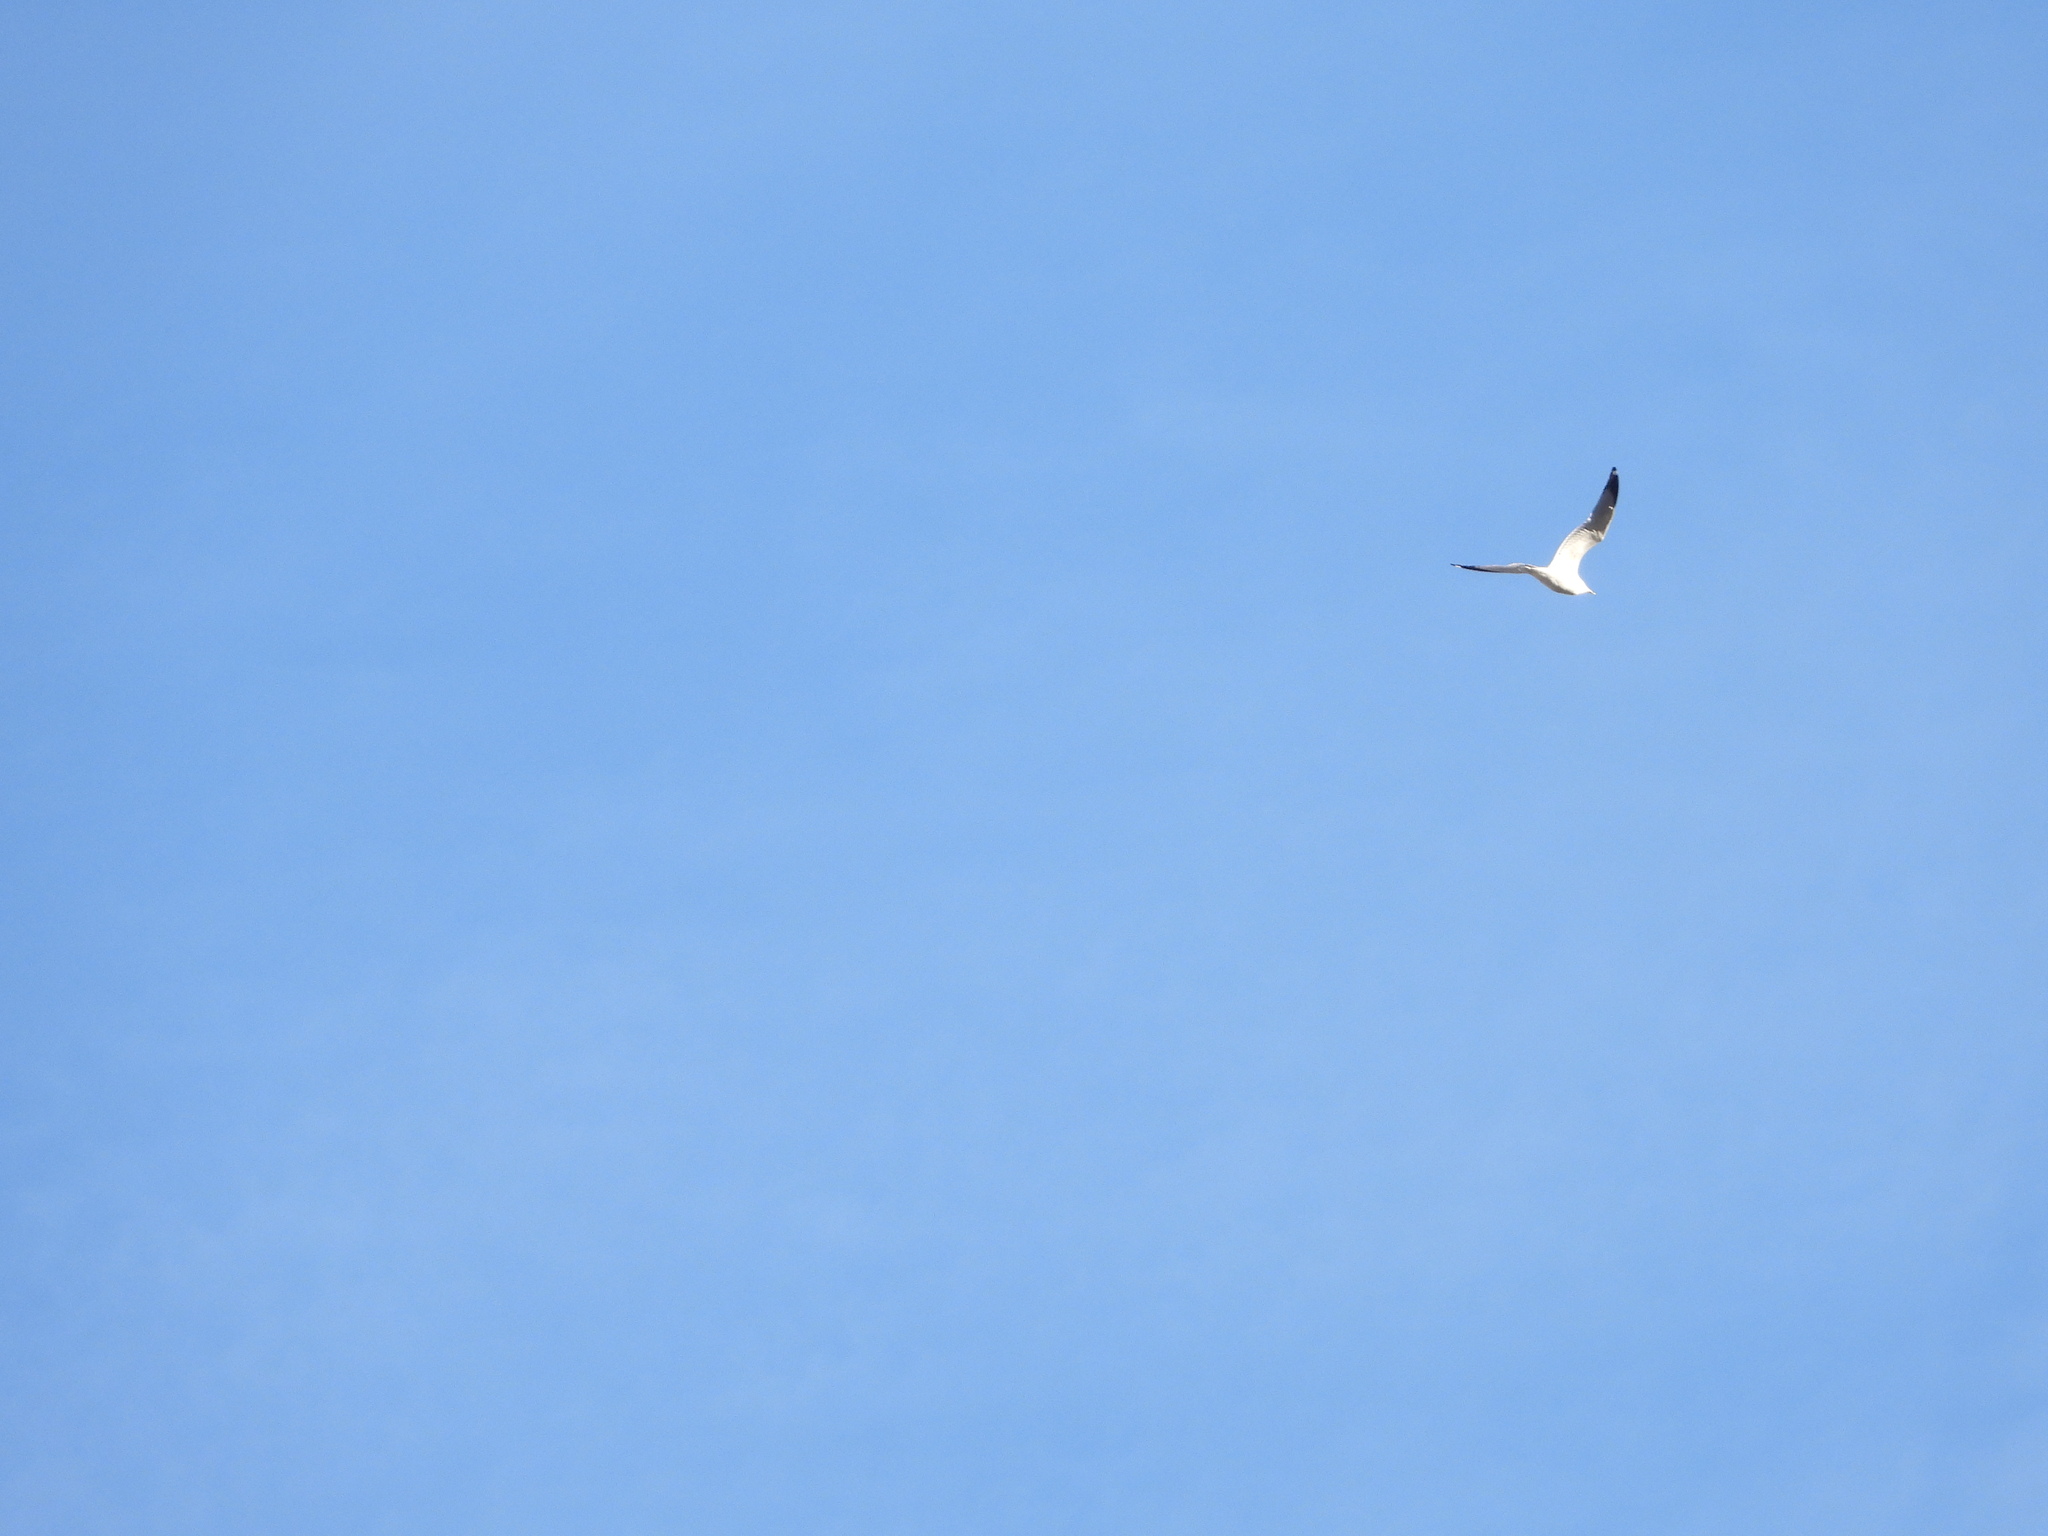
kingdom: Animalia
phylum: Chordata
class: Aves
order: Charadriiformes
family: Laridae
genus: Larus
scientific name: Larus delawarensis
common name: Ring-billed gull
